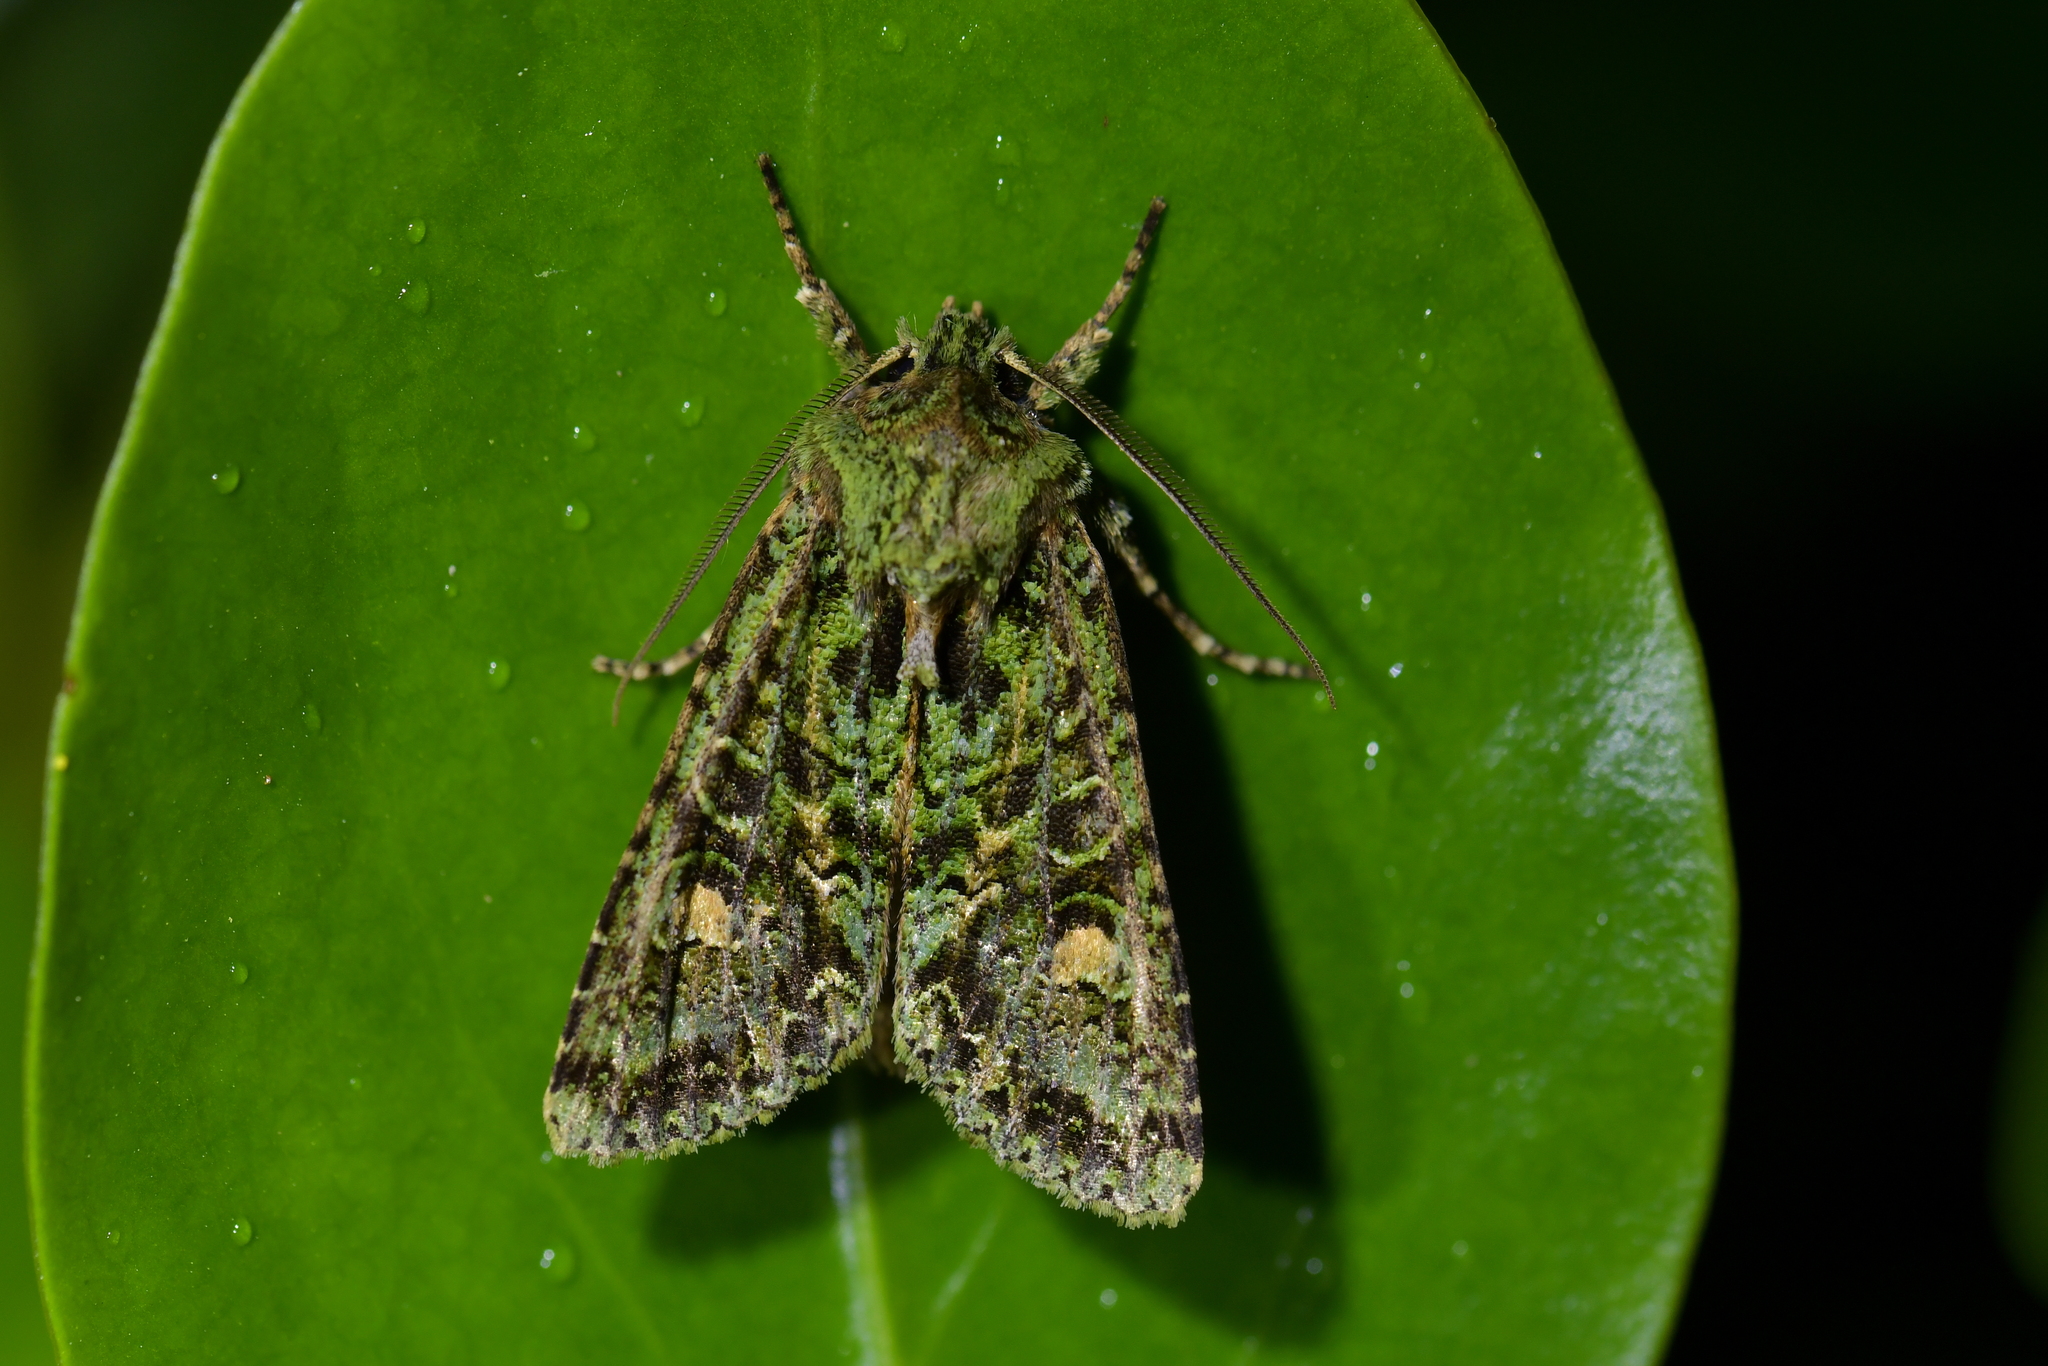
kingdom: Animalia
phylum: Arthropoda
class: Insecta
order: Lepidoptera
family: Noctuidae
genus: Ichneutica
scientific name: Ichneutica
